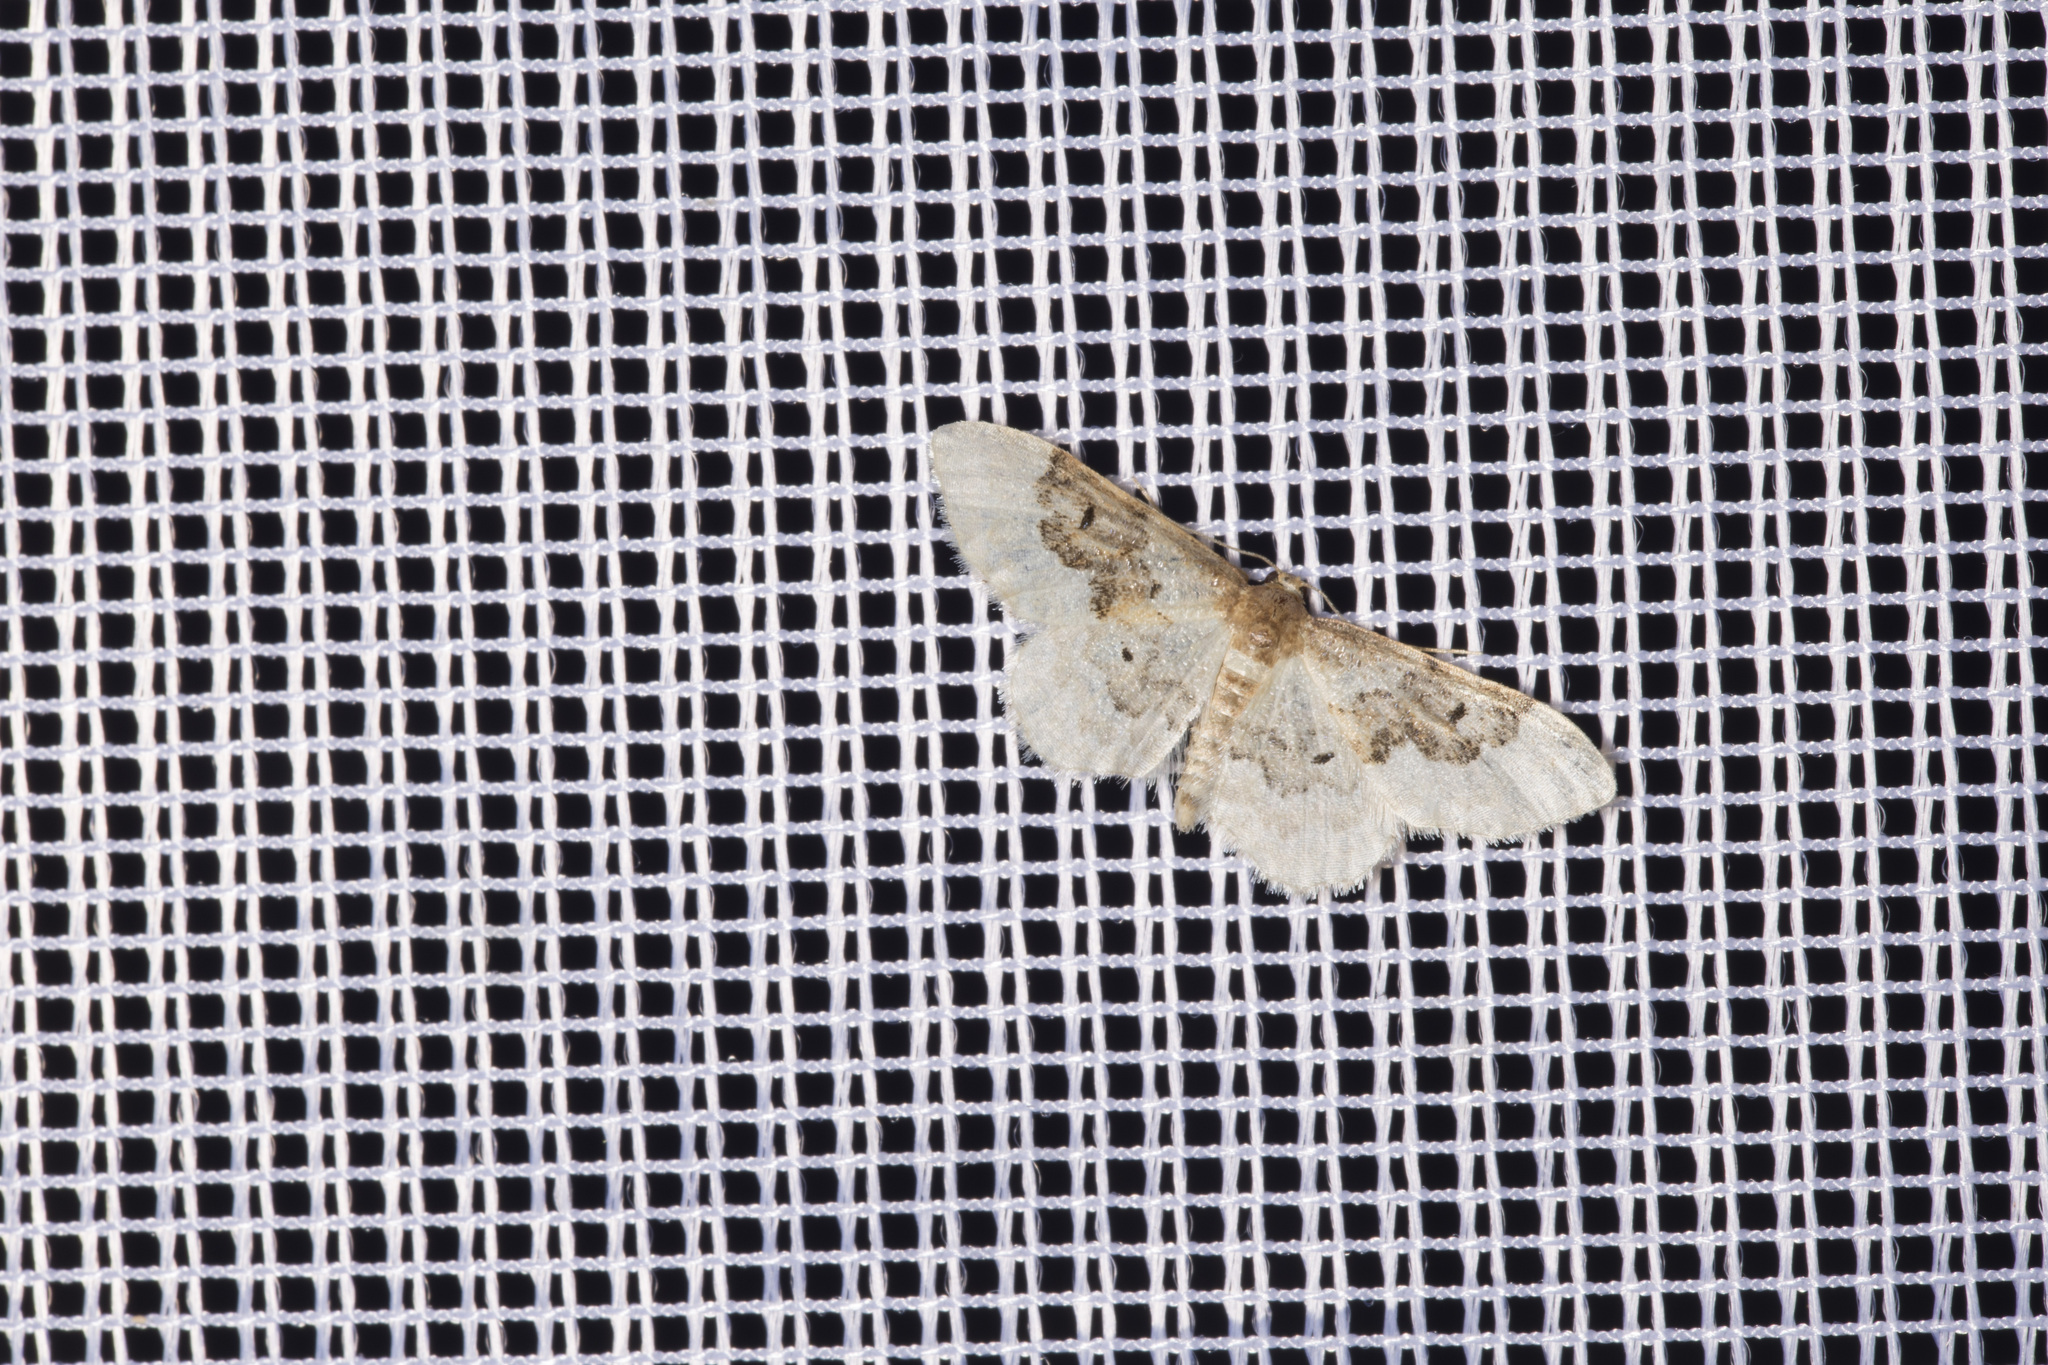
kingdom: Animalia
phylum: Arthropoda
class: Insecta
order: Lepidoptera
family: Geometridae
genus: Idaea
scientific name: Idaea rusticata
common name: Least carpet
